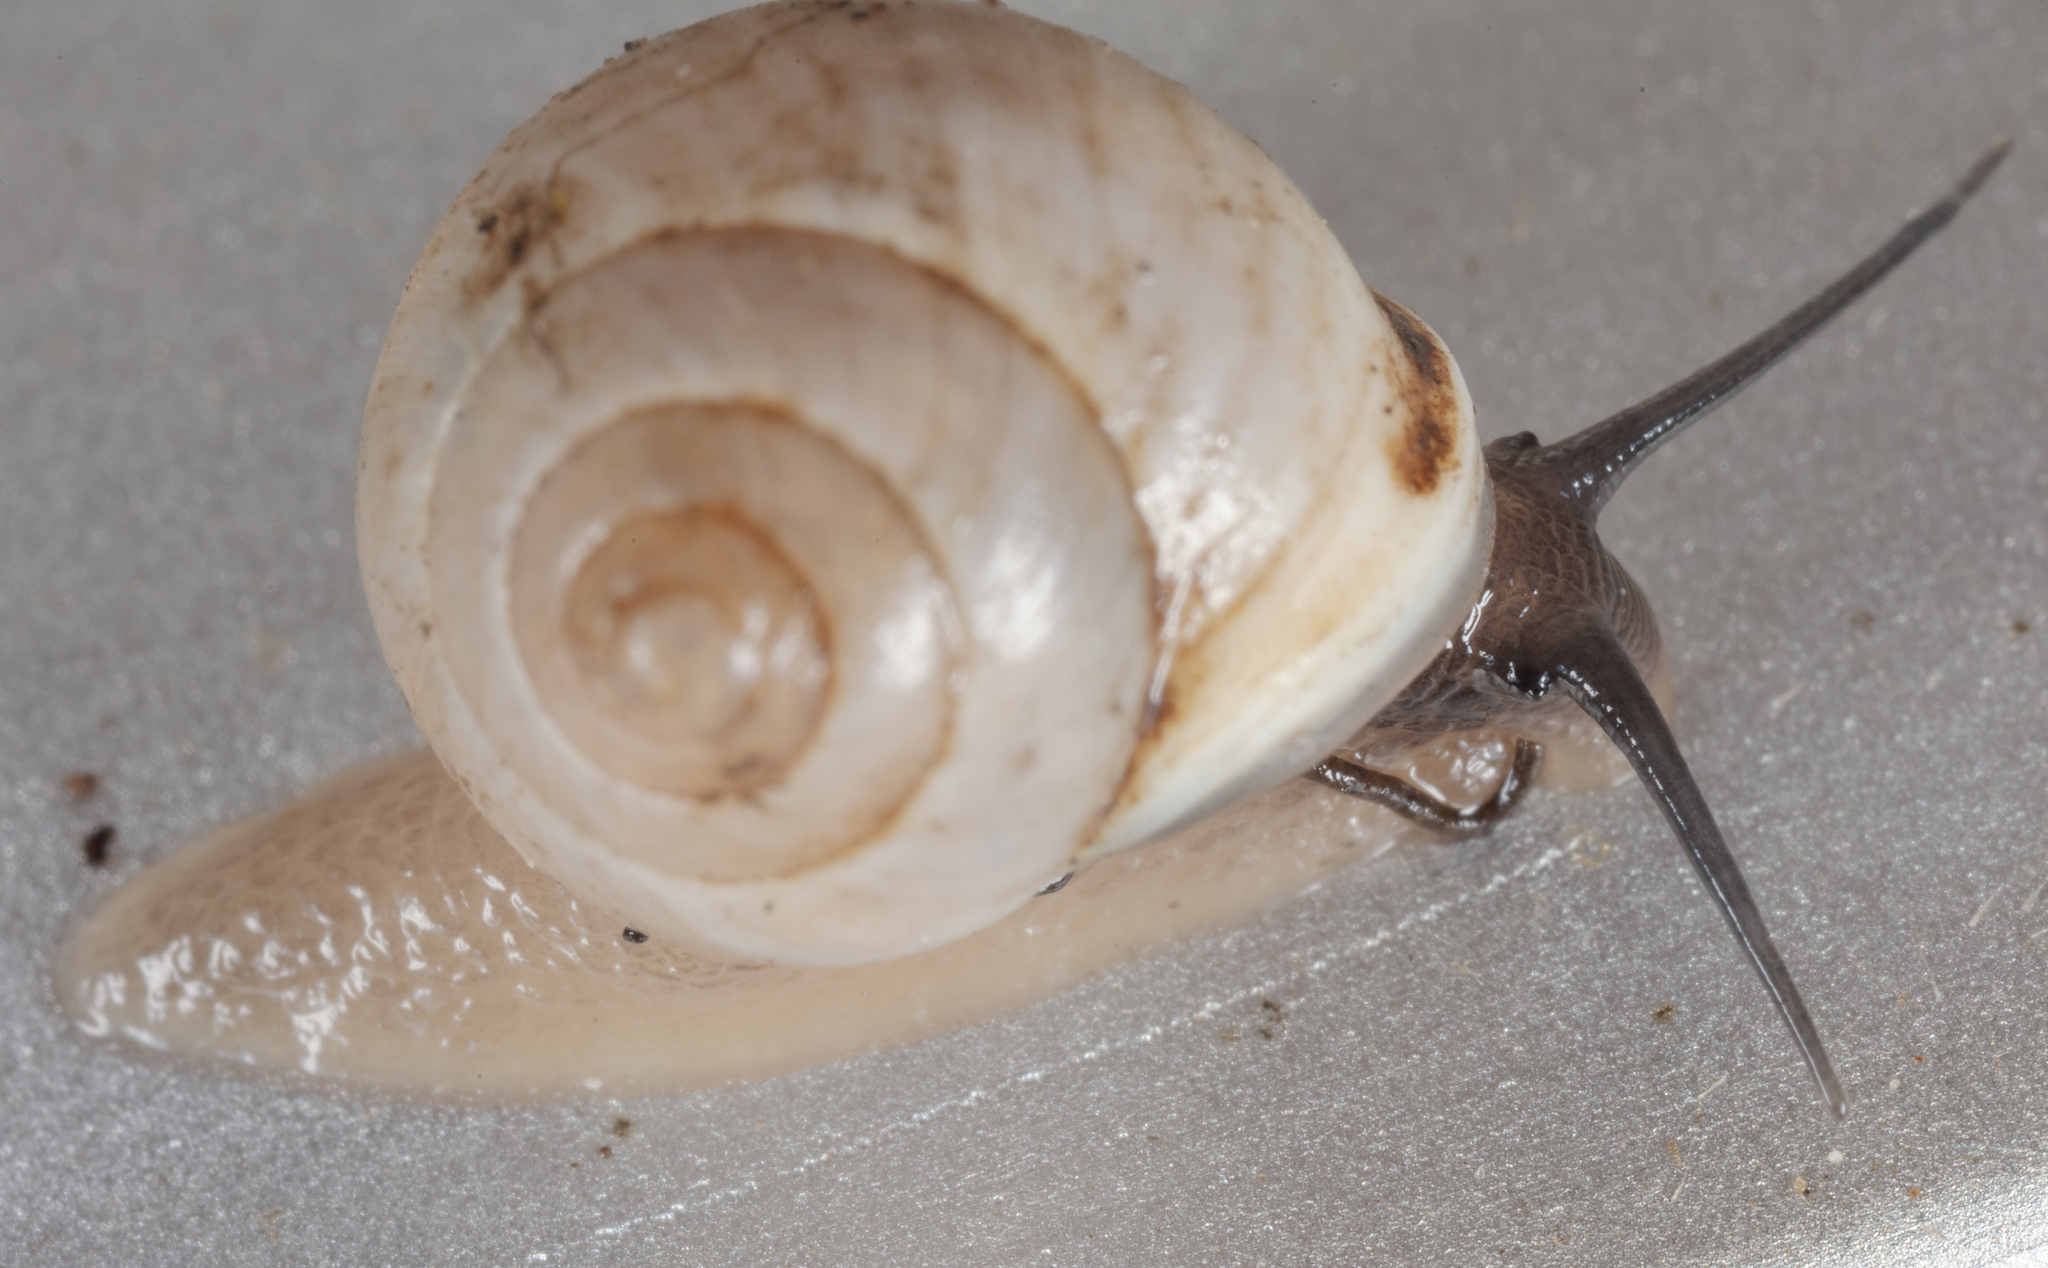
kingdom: Animalia
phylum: Mollusca
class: Gastropoda
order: Cycloneritida
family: Helicinidae
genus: Helicina
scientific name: Helicina orbiculata
